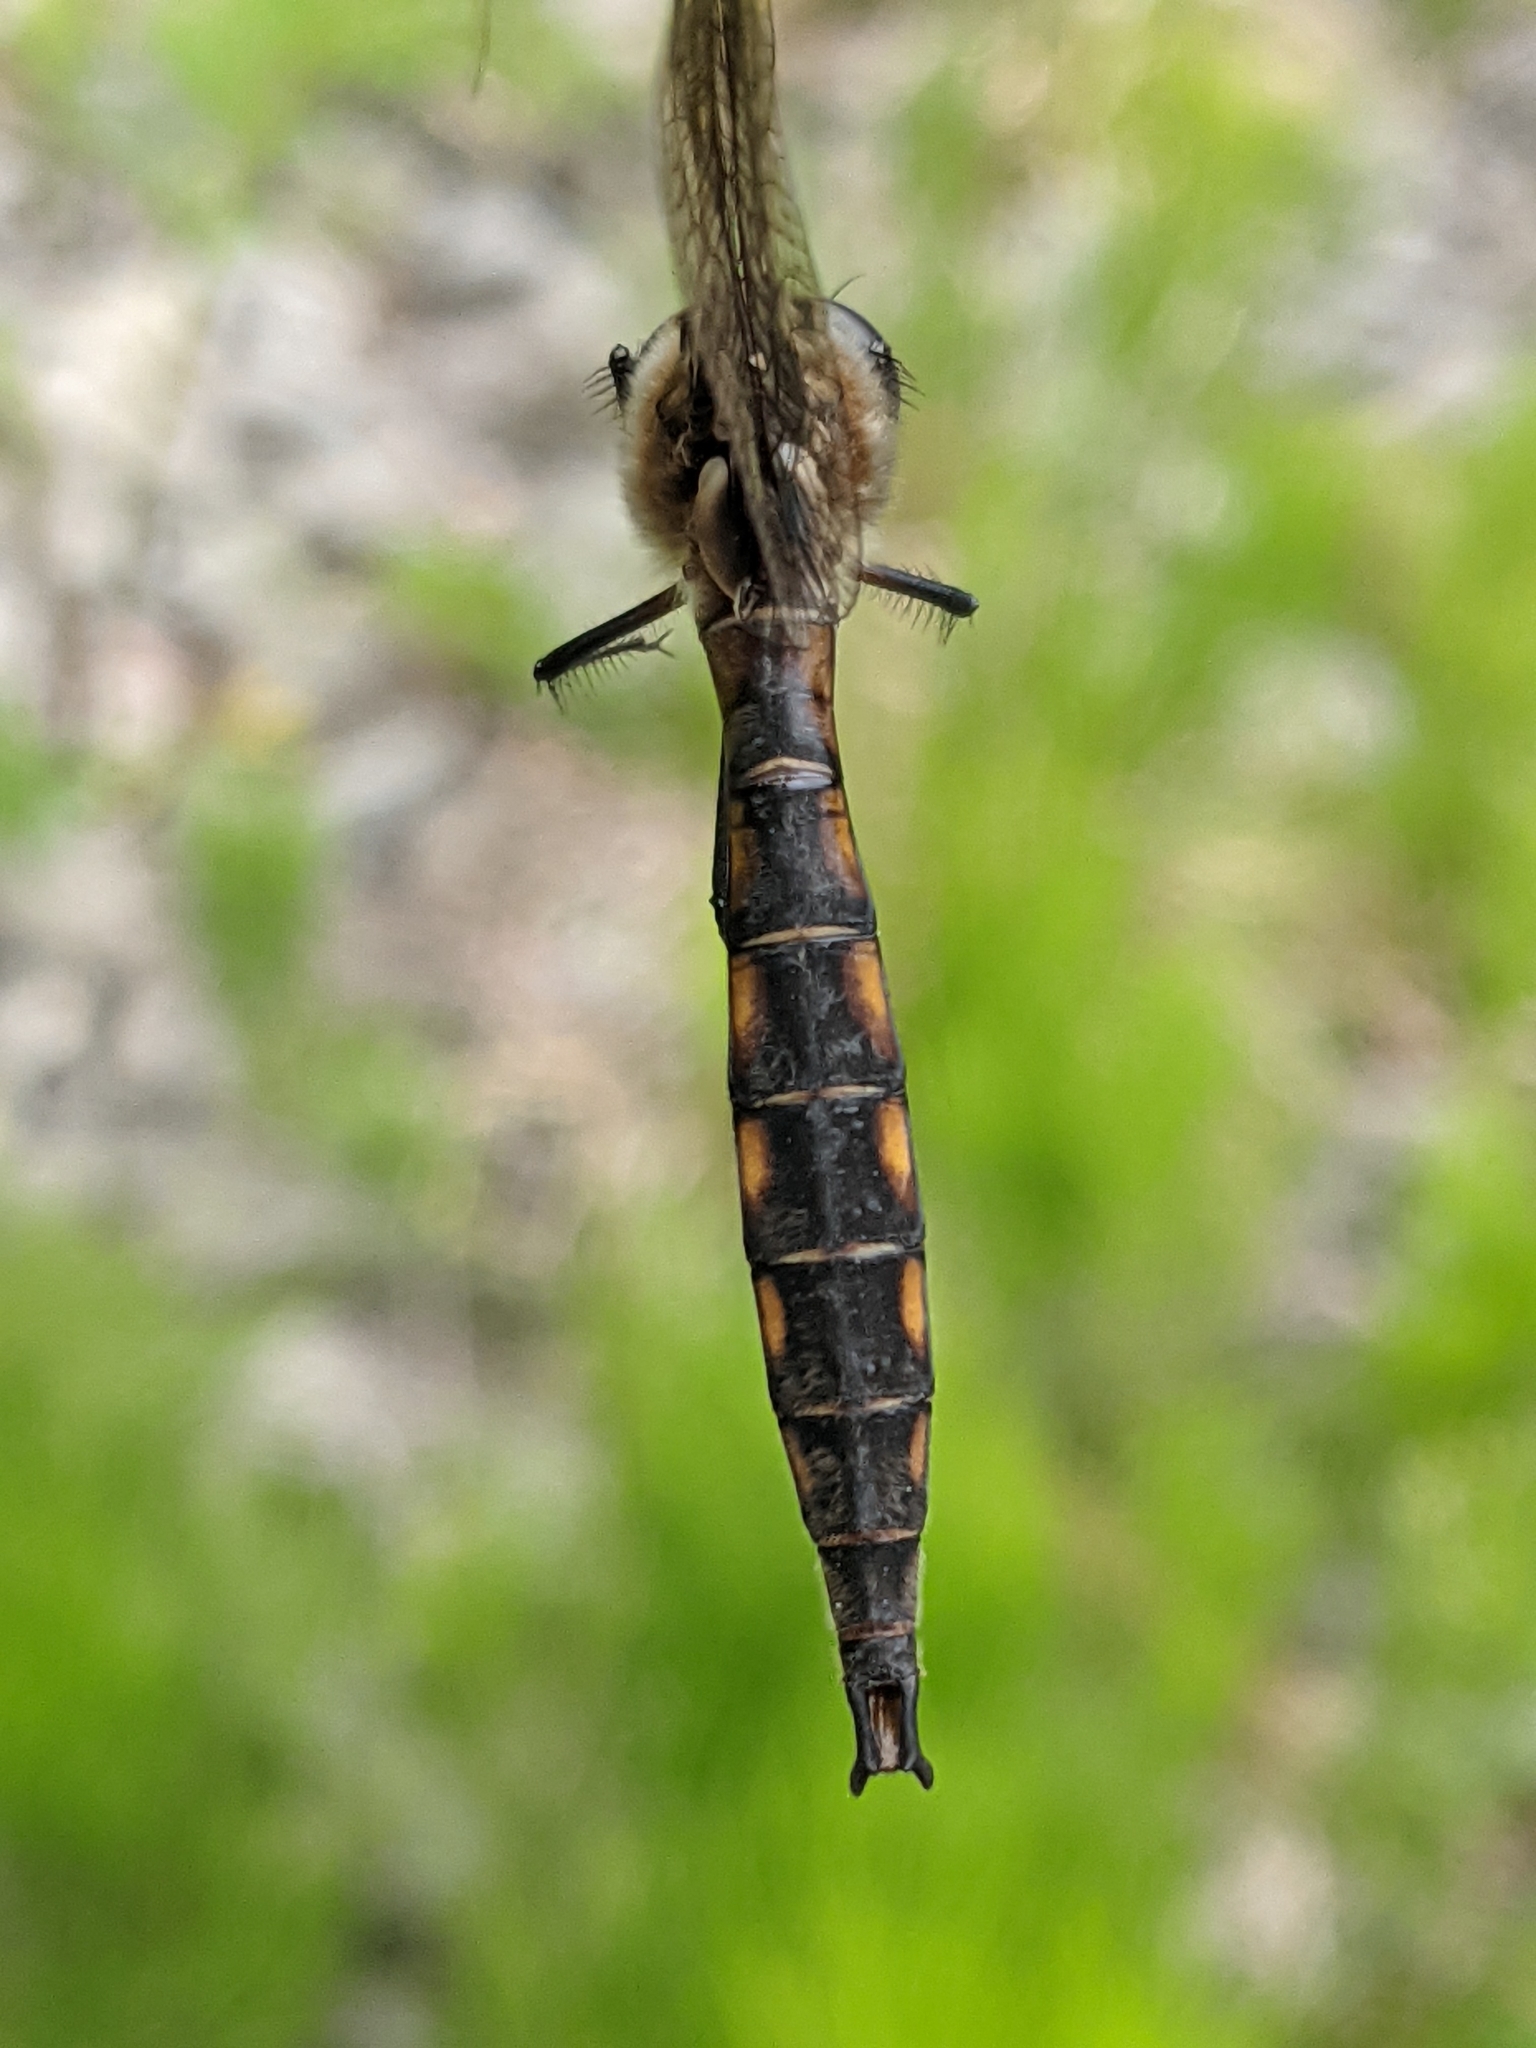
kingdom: Animalia
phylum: Arthropoda
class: Insecta
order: Odonata
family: Corduliidae
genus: Epitheca
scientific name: Epitheca canis
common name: Beaverpond baskettail
